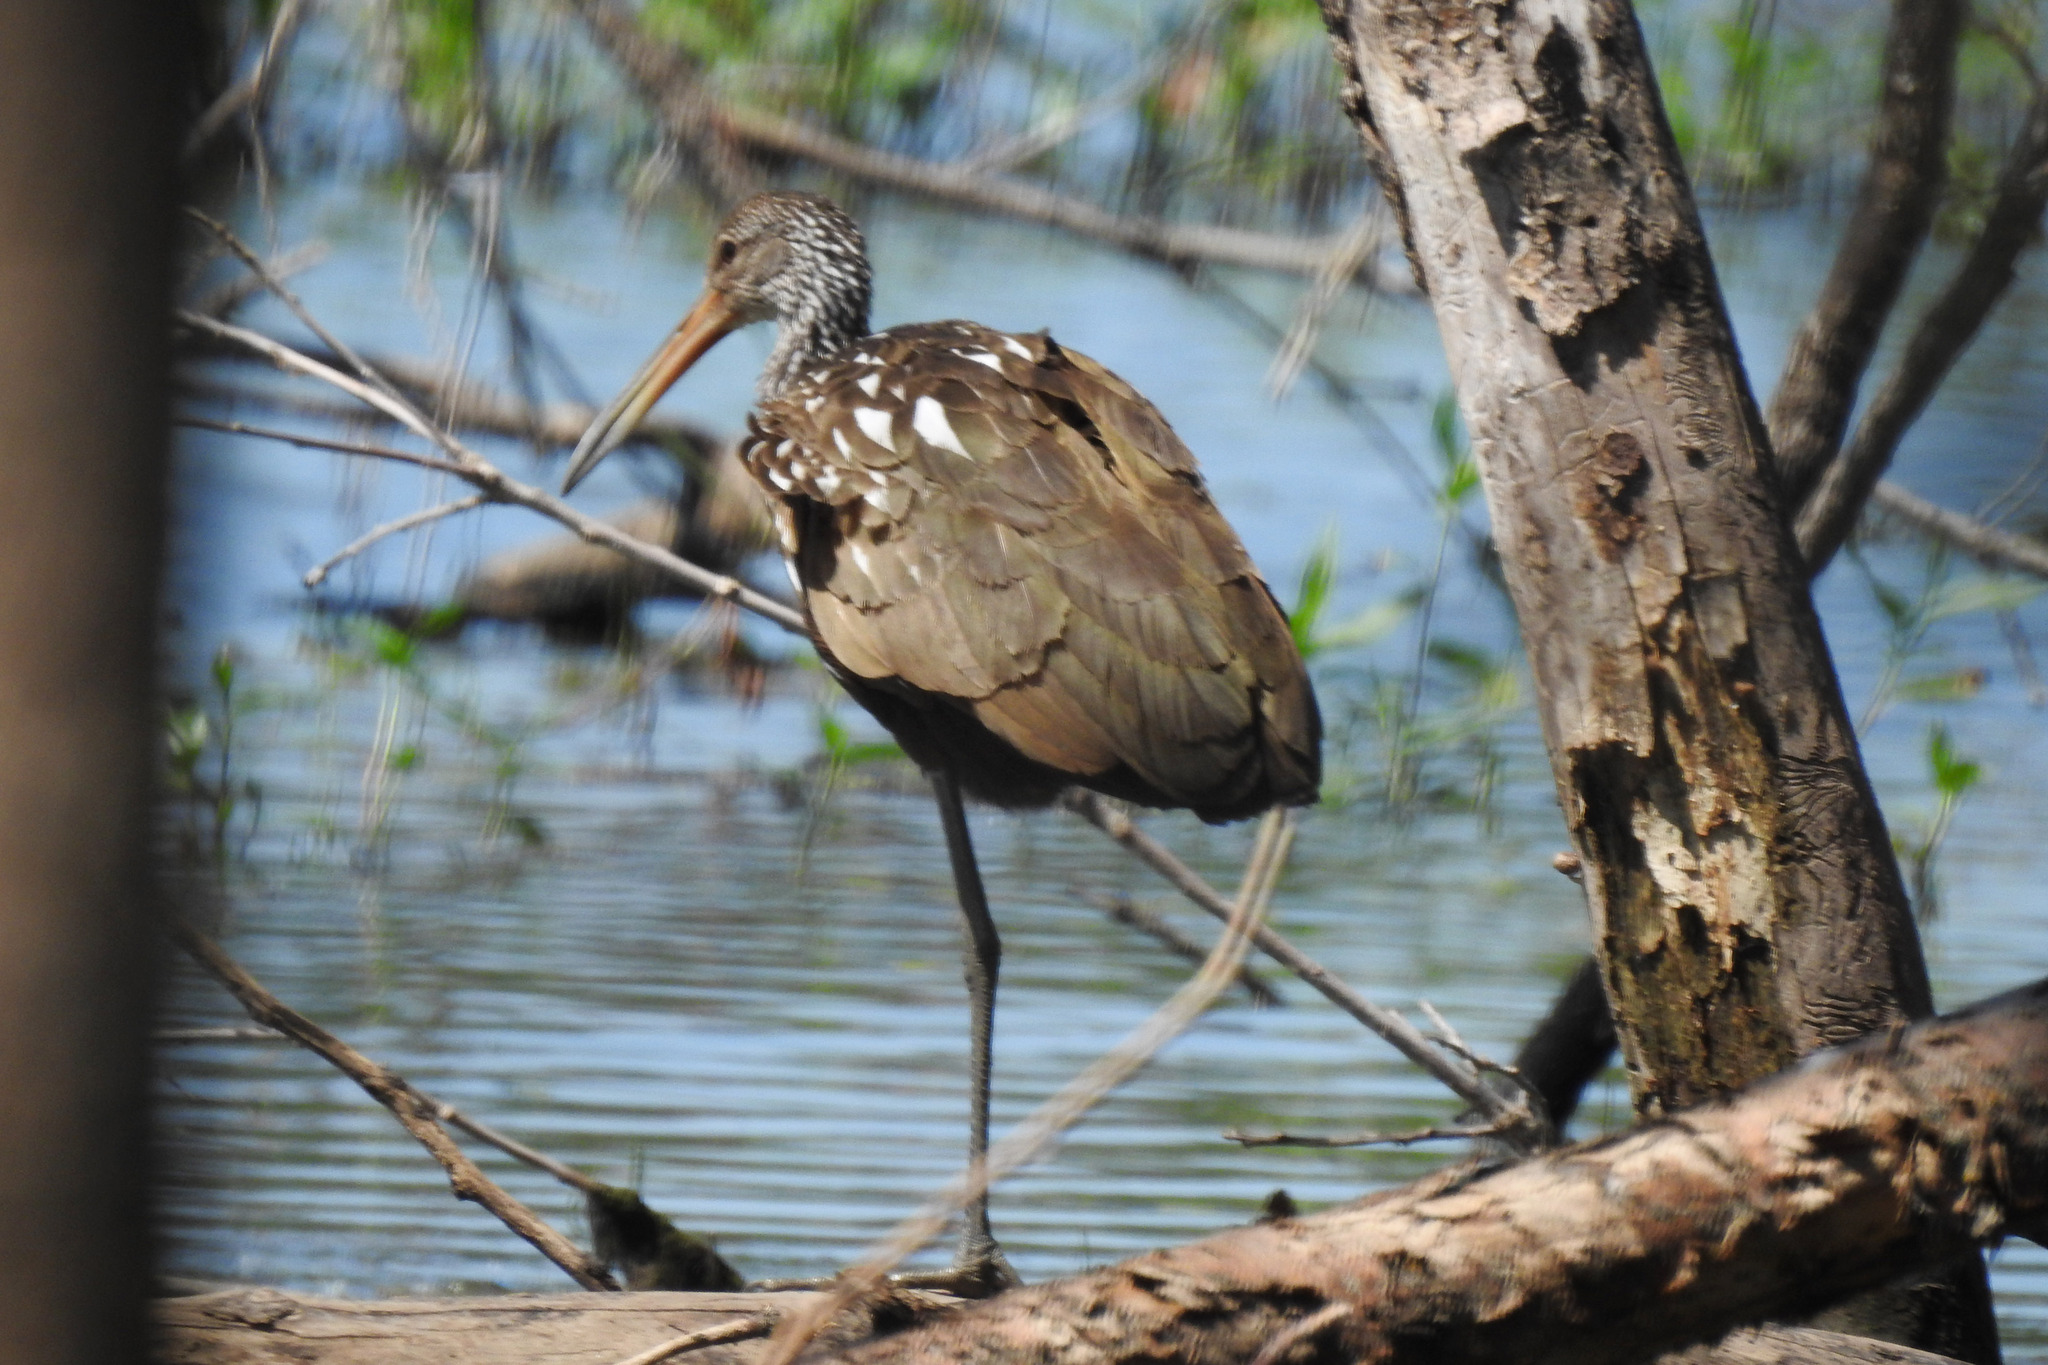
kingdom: Animalia
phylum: Chordata
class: Aves
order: Gruiformes
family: Aramidae
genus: Aramus
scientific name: Aramus guarauna
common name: Limpkin
